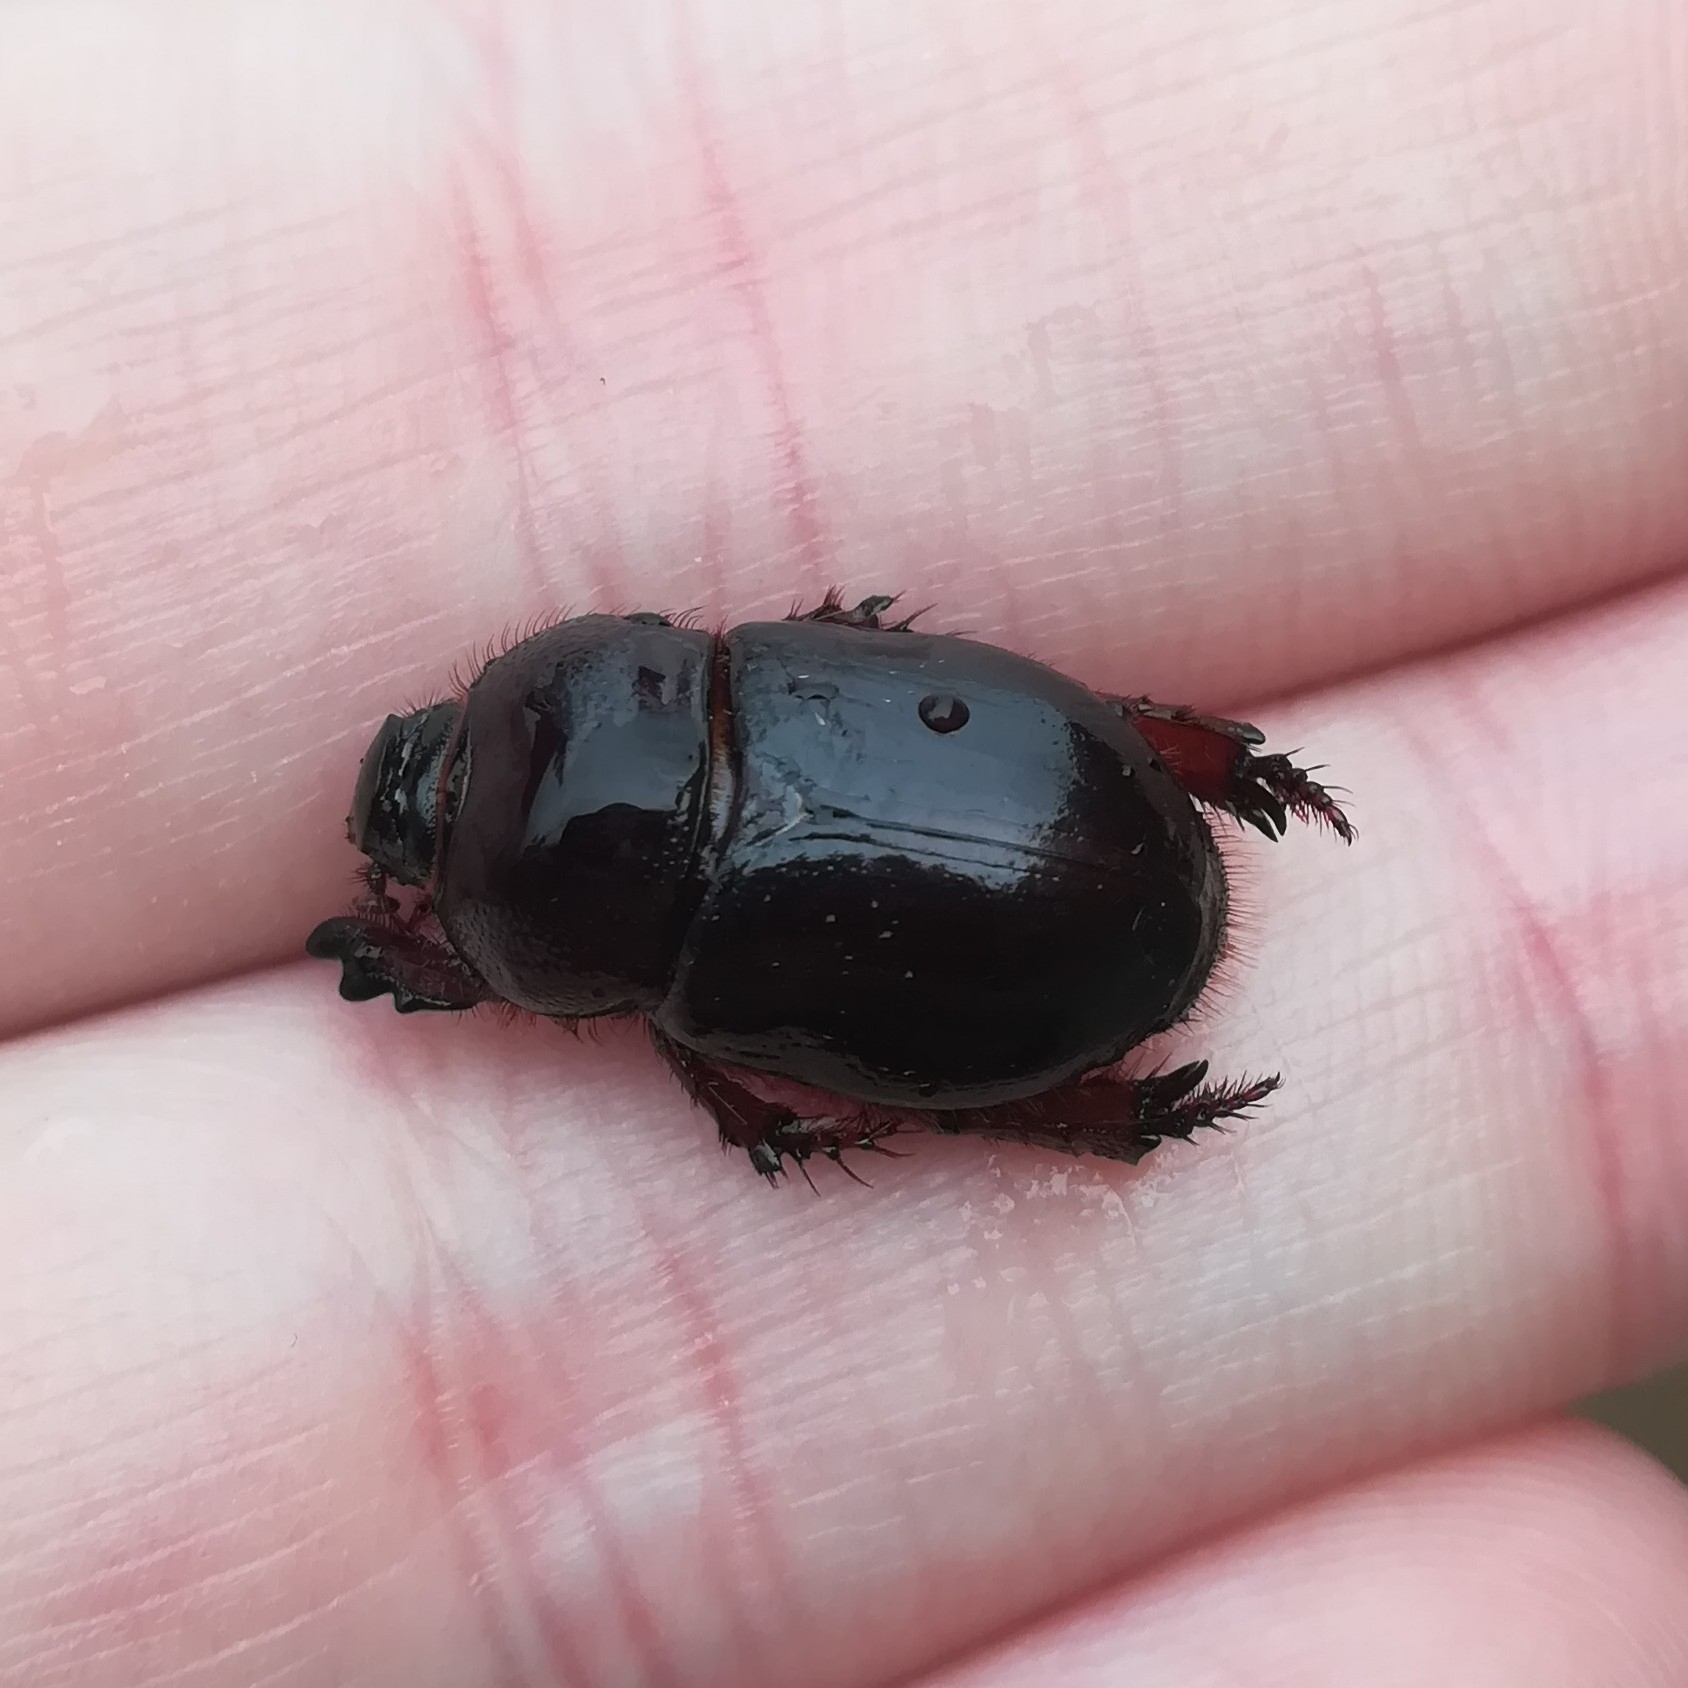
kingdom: Animalia
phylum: Arthropoda
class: Insecta
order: Coleoptera
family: Scarabaeidae
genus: Temnorhynchus
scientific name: Temnorhynchus retusus
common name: Plate-faced beetle
